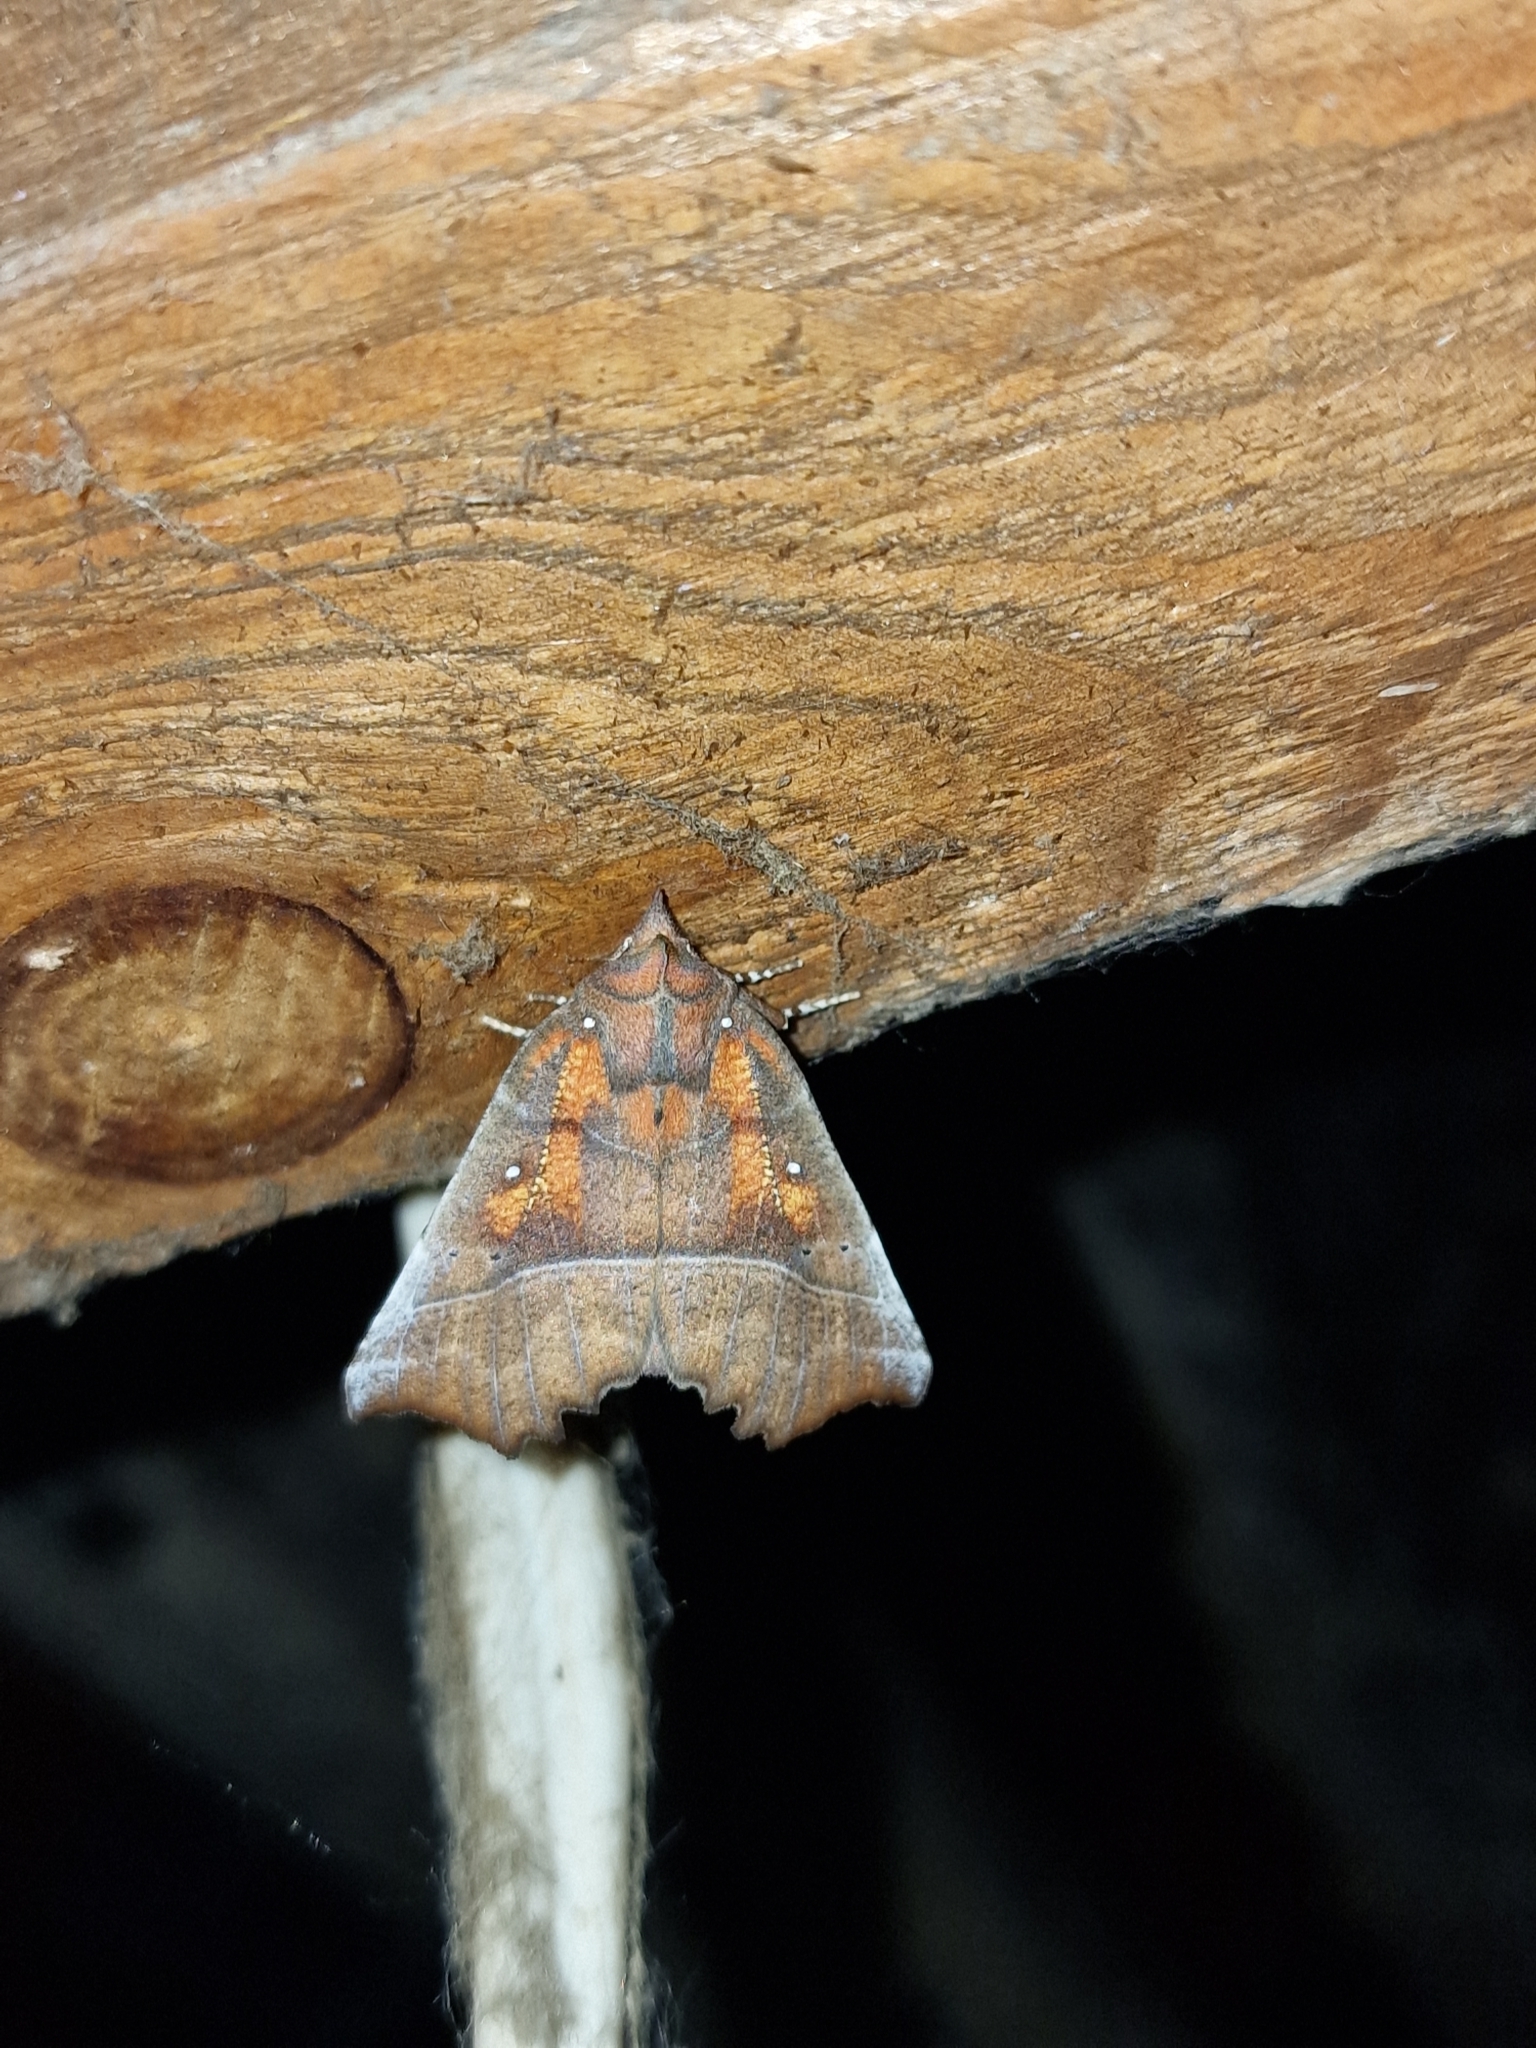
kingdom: Animalia
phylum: Arthropoda
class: Insecta
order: Lepidoptera
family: Erebidae
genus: Scoliopteryx
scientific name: Scoliopteryx libatrix
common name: Herald
